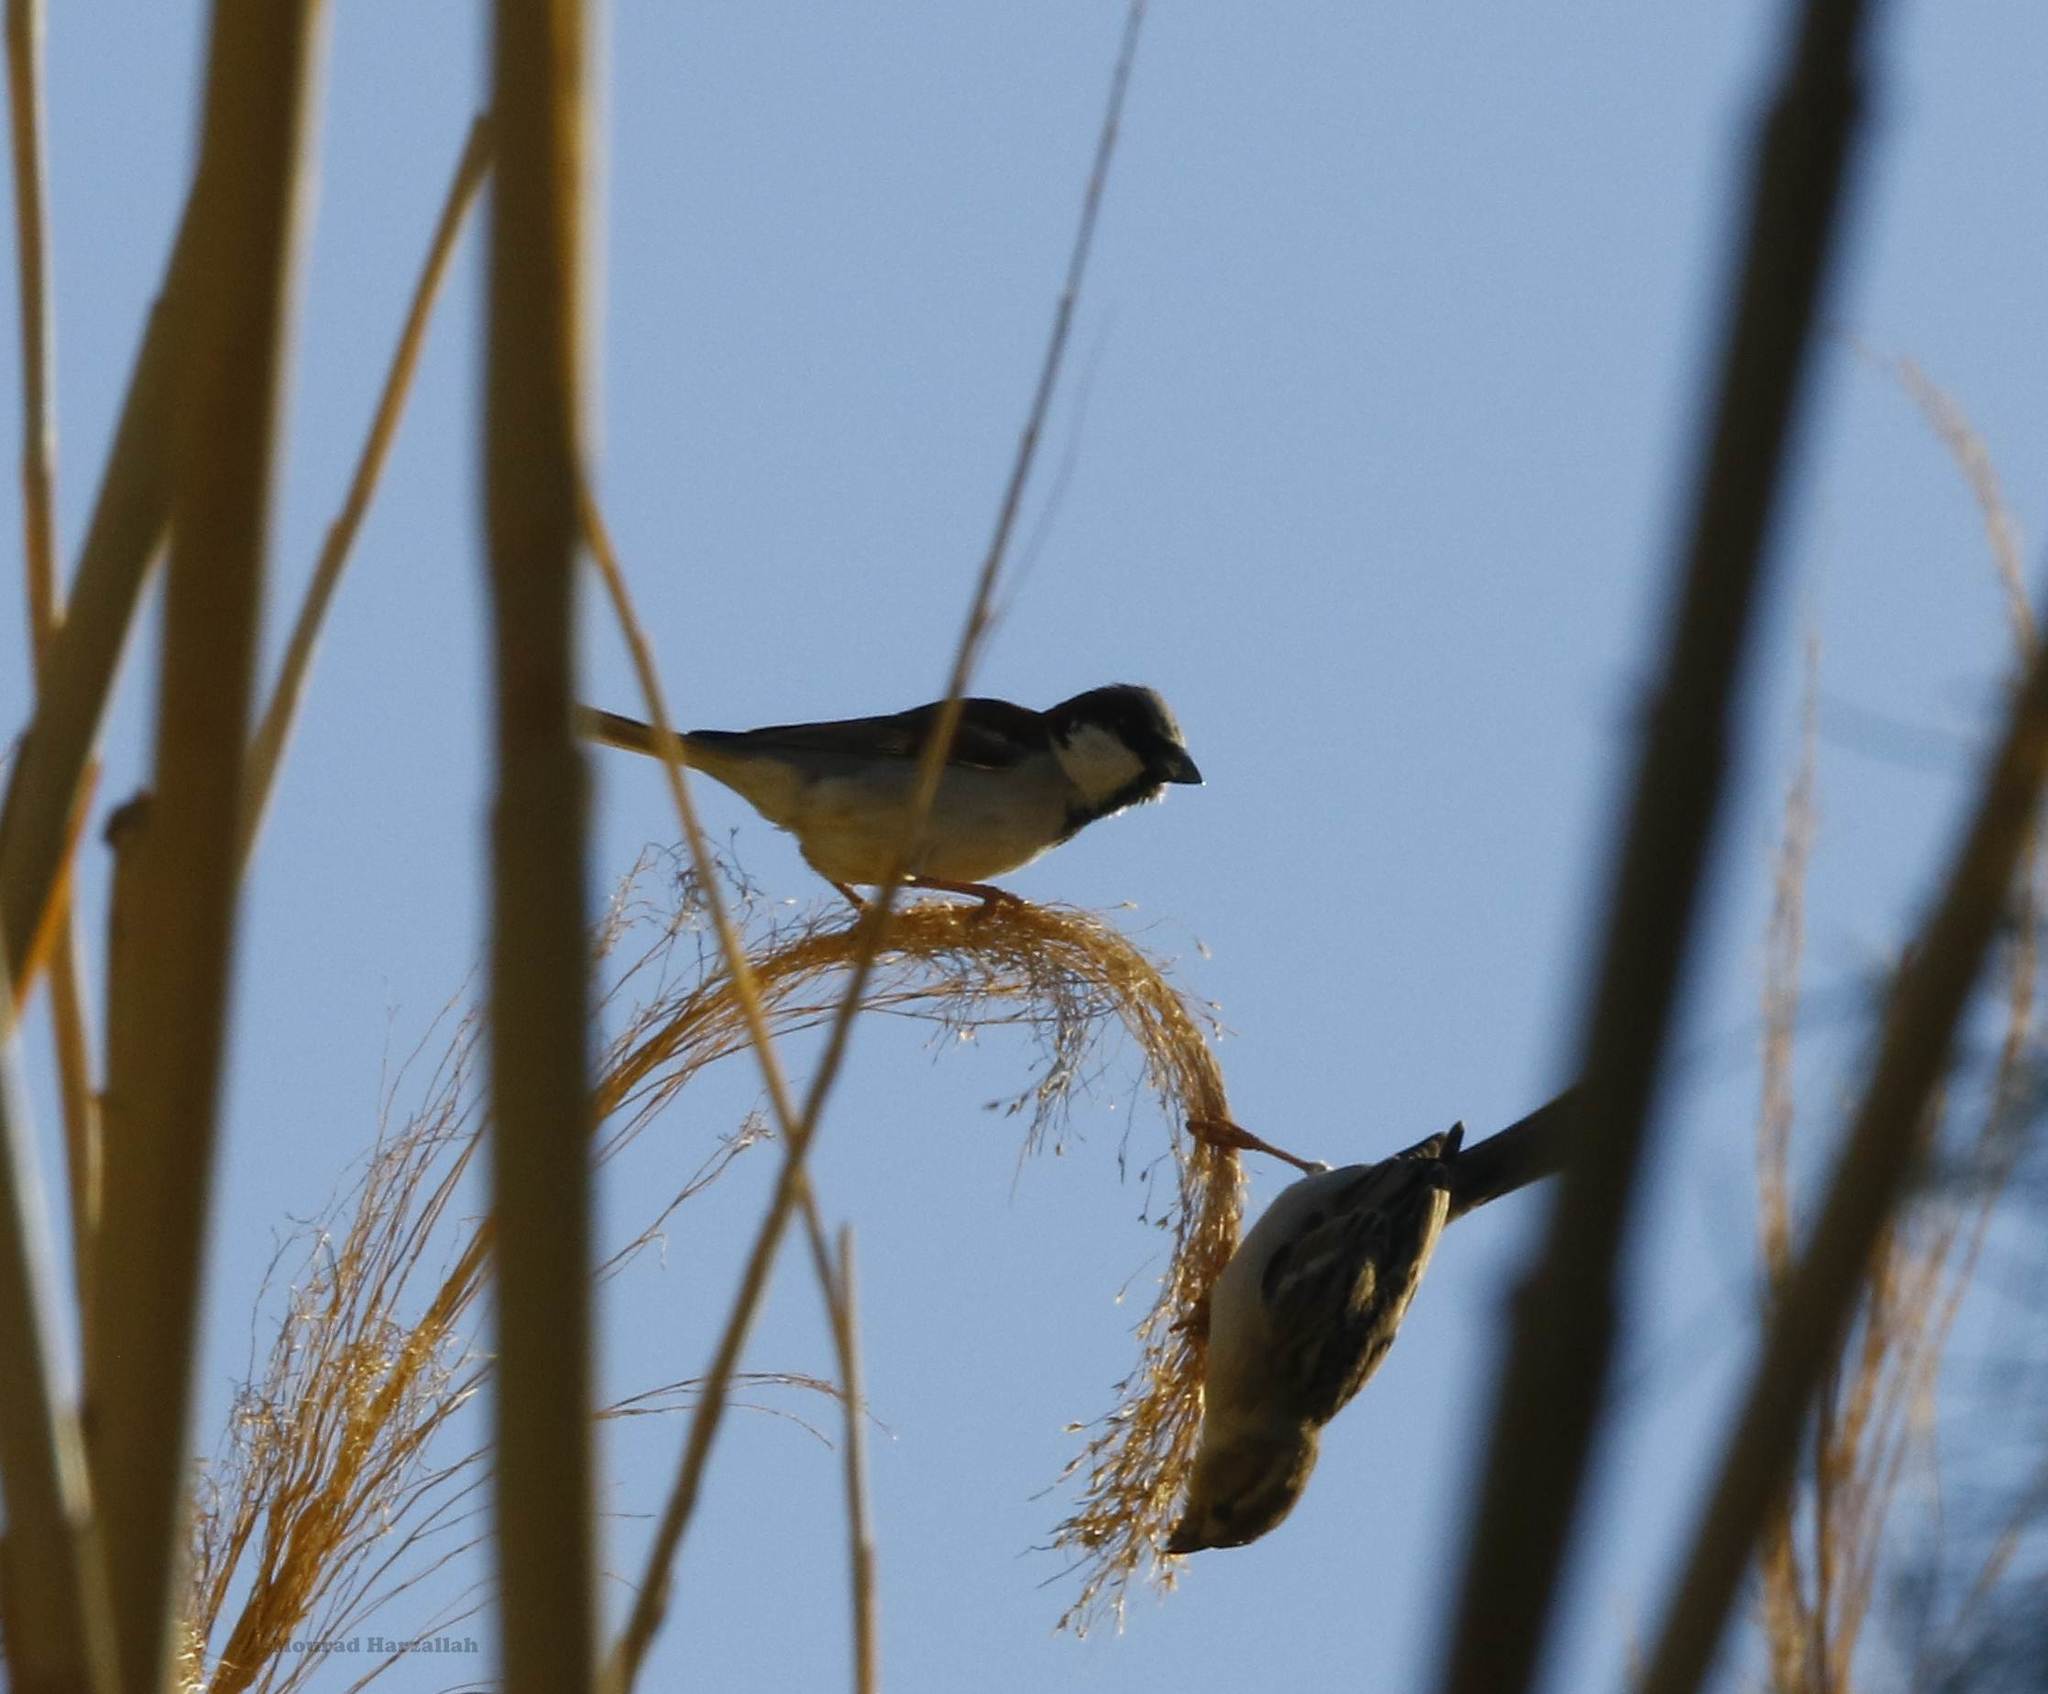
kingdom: Animalia
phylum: Chordata
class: Aves
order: Passeriformes
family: Passeridae
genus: Passer
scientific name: Passer domesticus
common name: House sparrow
